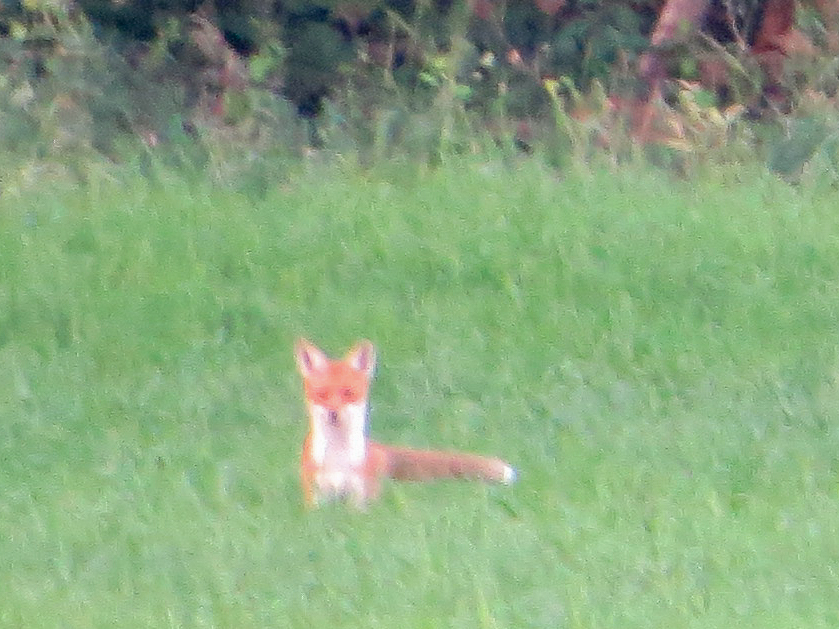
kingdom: Animalia
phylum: Chordata
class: Mammalia
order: Carnivora
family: Canidae
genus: Vulpes
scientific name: Vulpes vulpes
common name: Red fox
